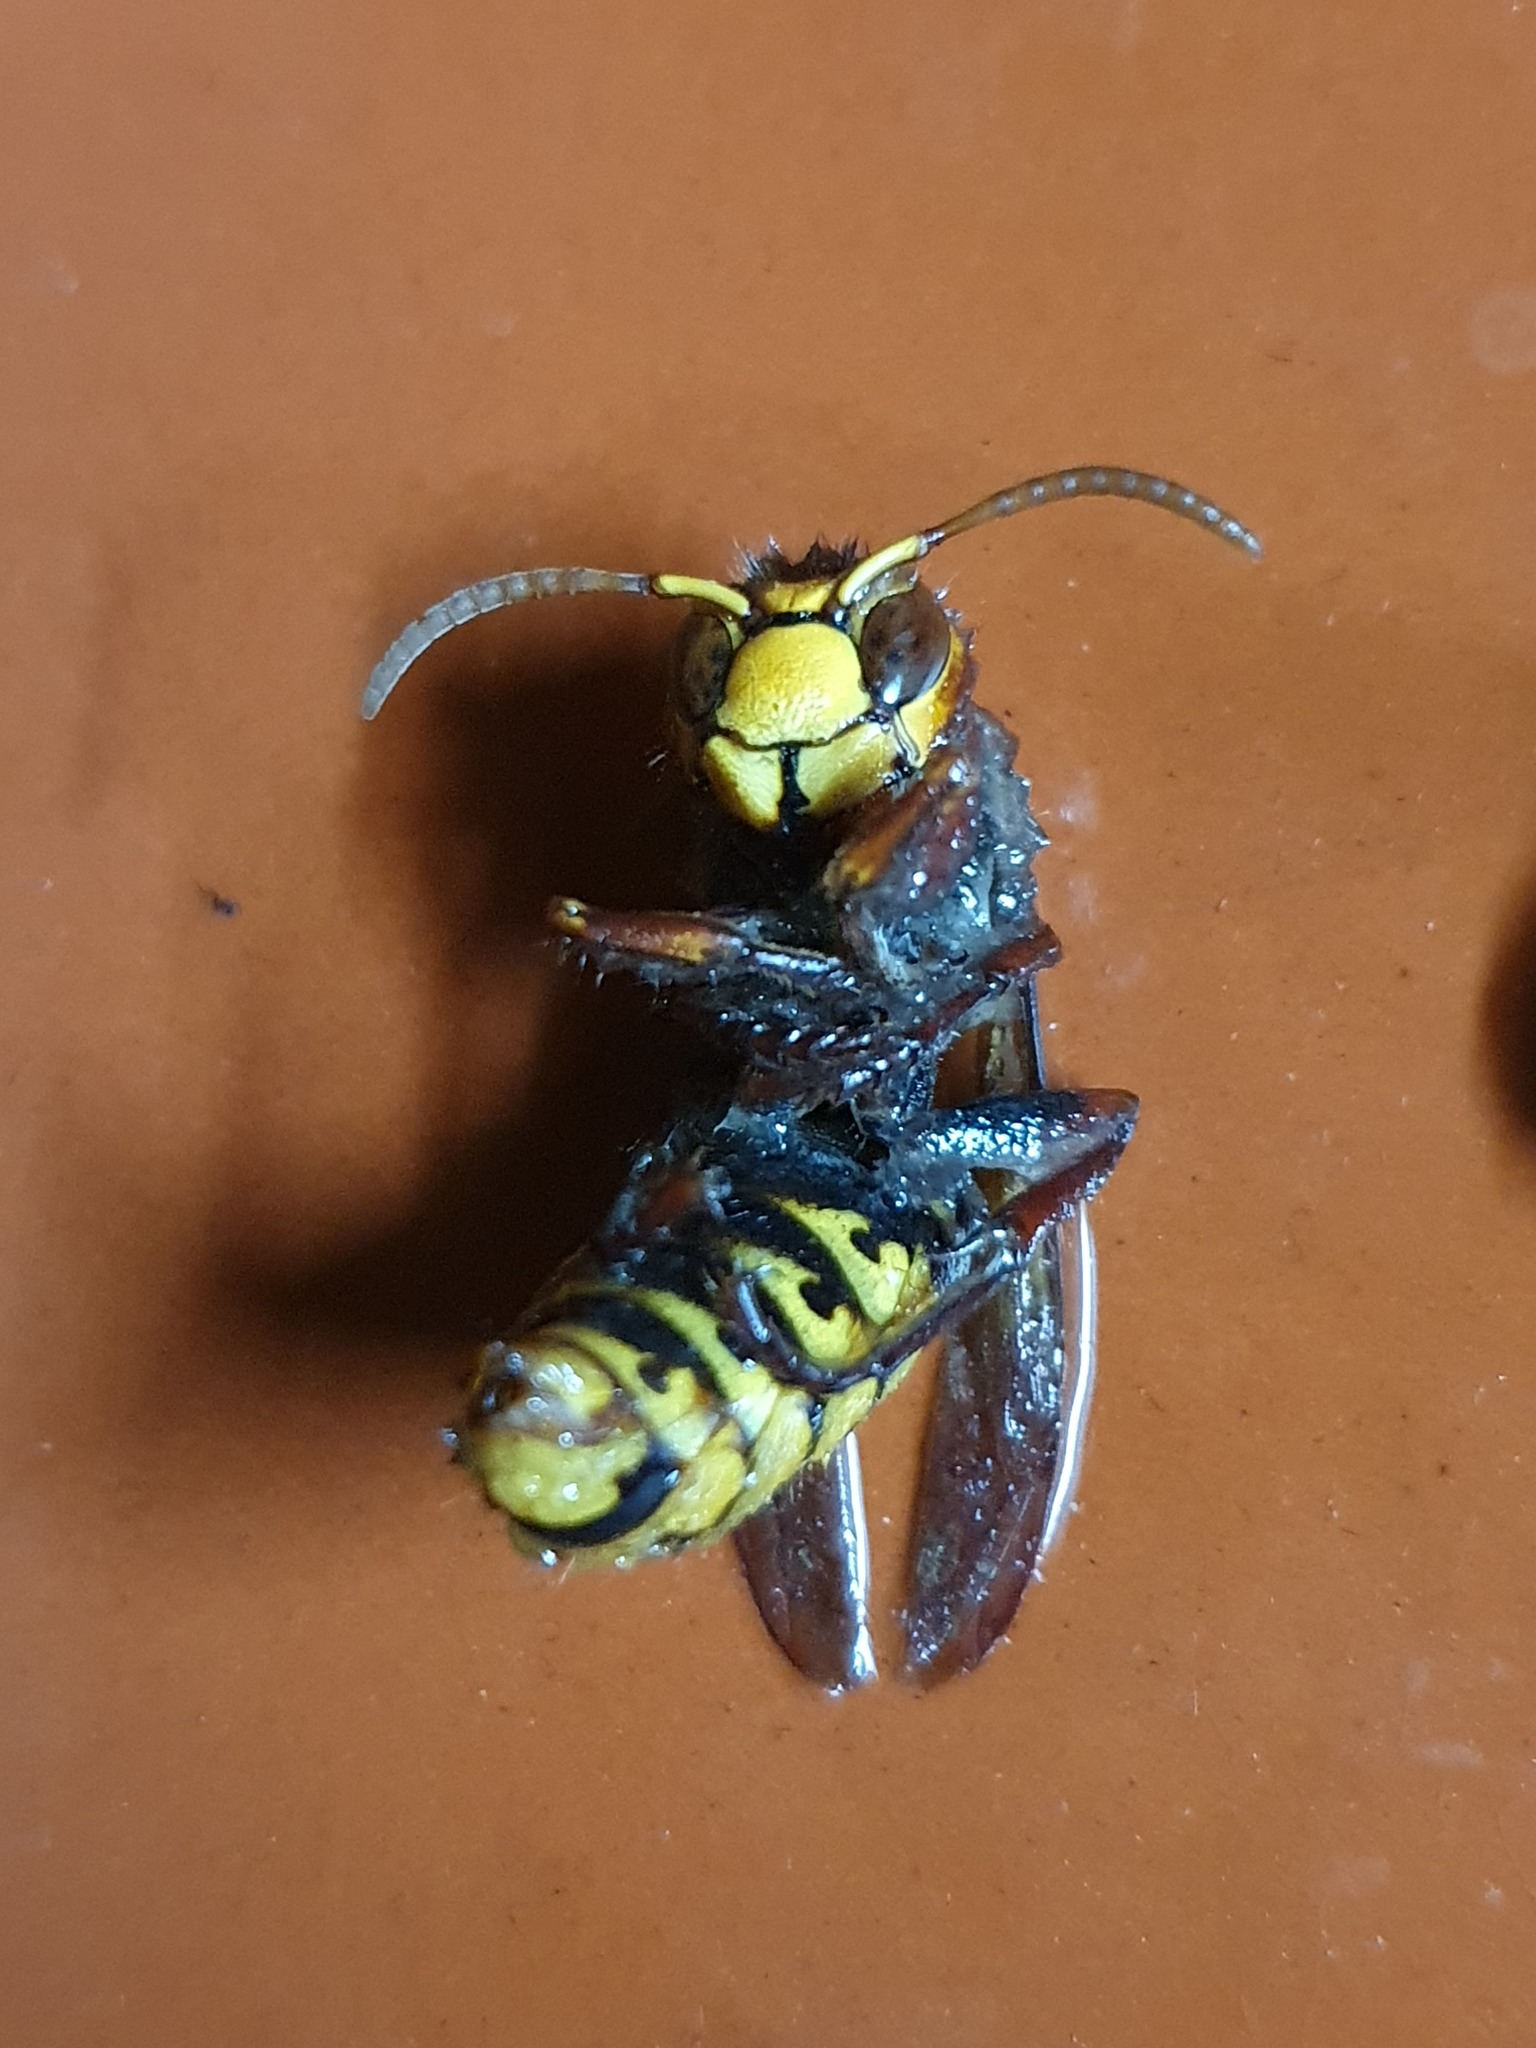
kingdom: Animalia
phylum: Arthropoda
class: Insecta
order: Hymenoptera
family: Vespidae
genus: Vespa
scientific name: Vespa crabro
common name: Hornet
